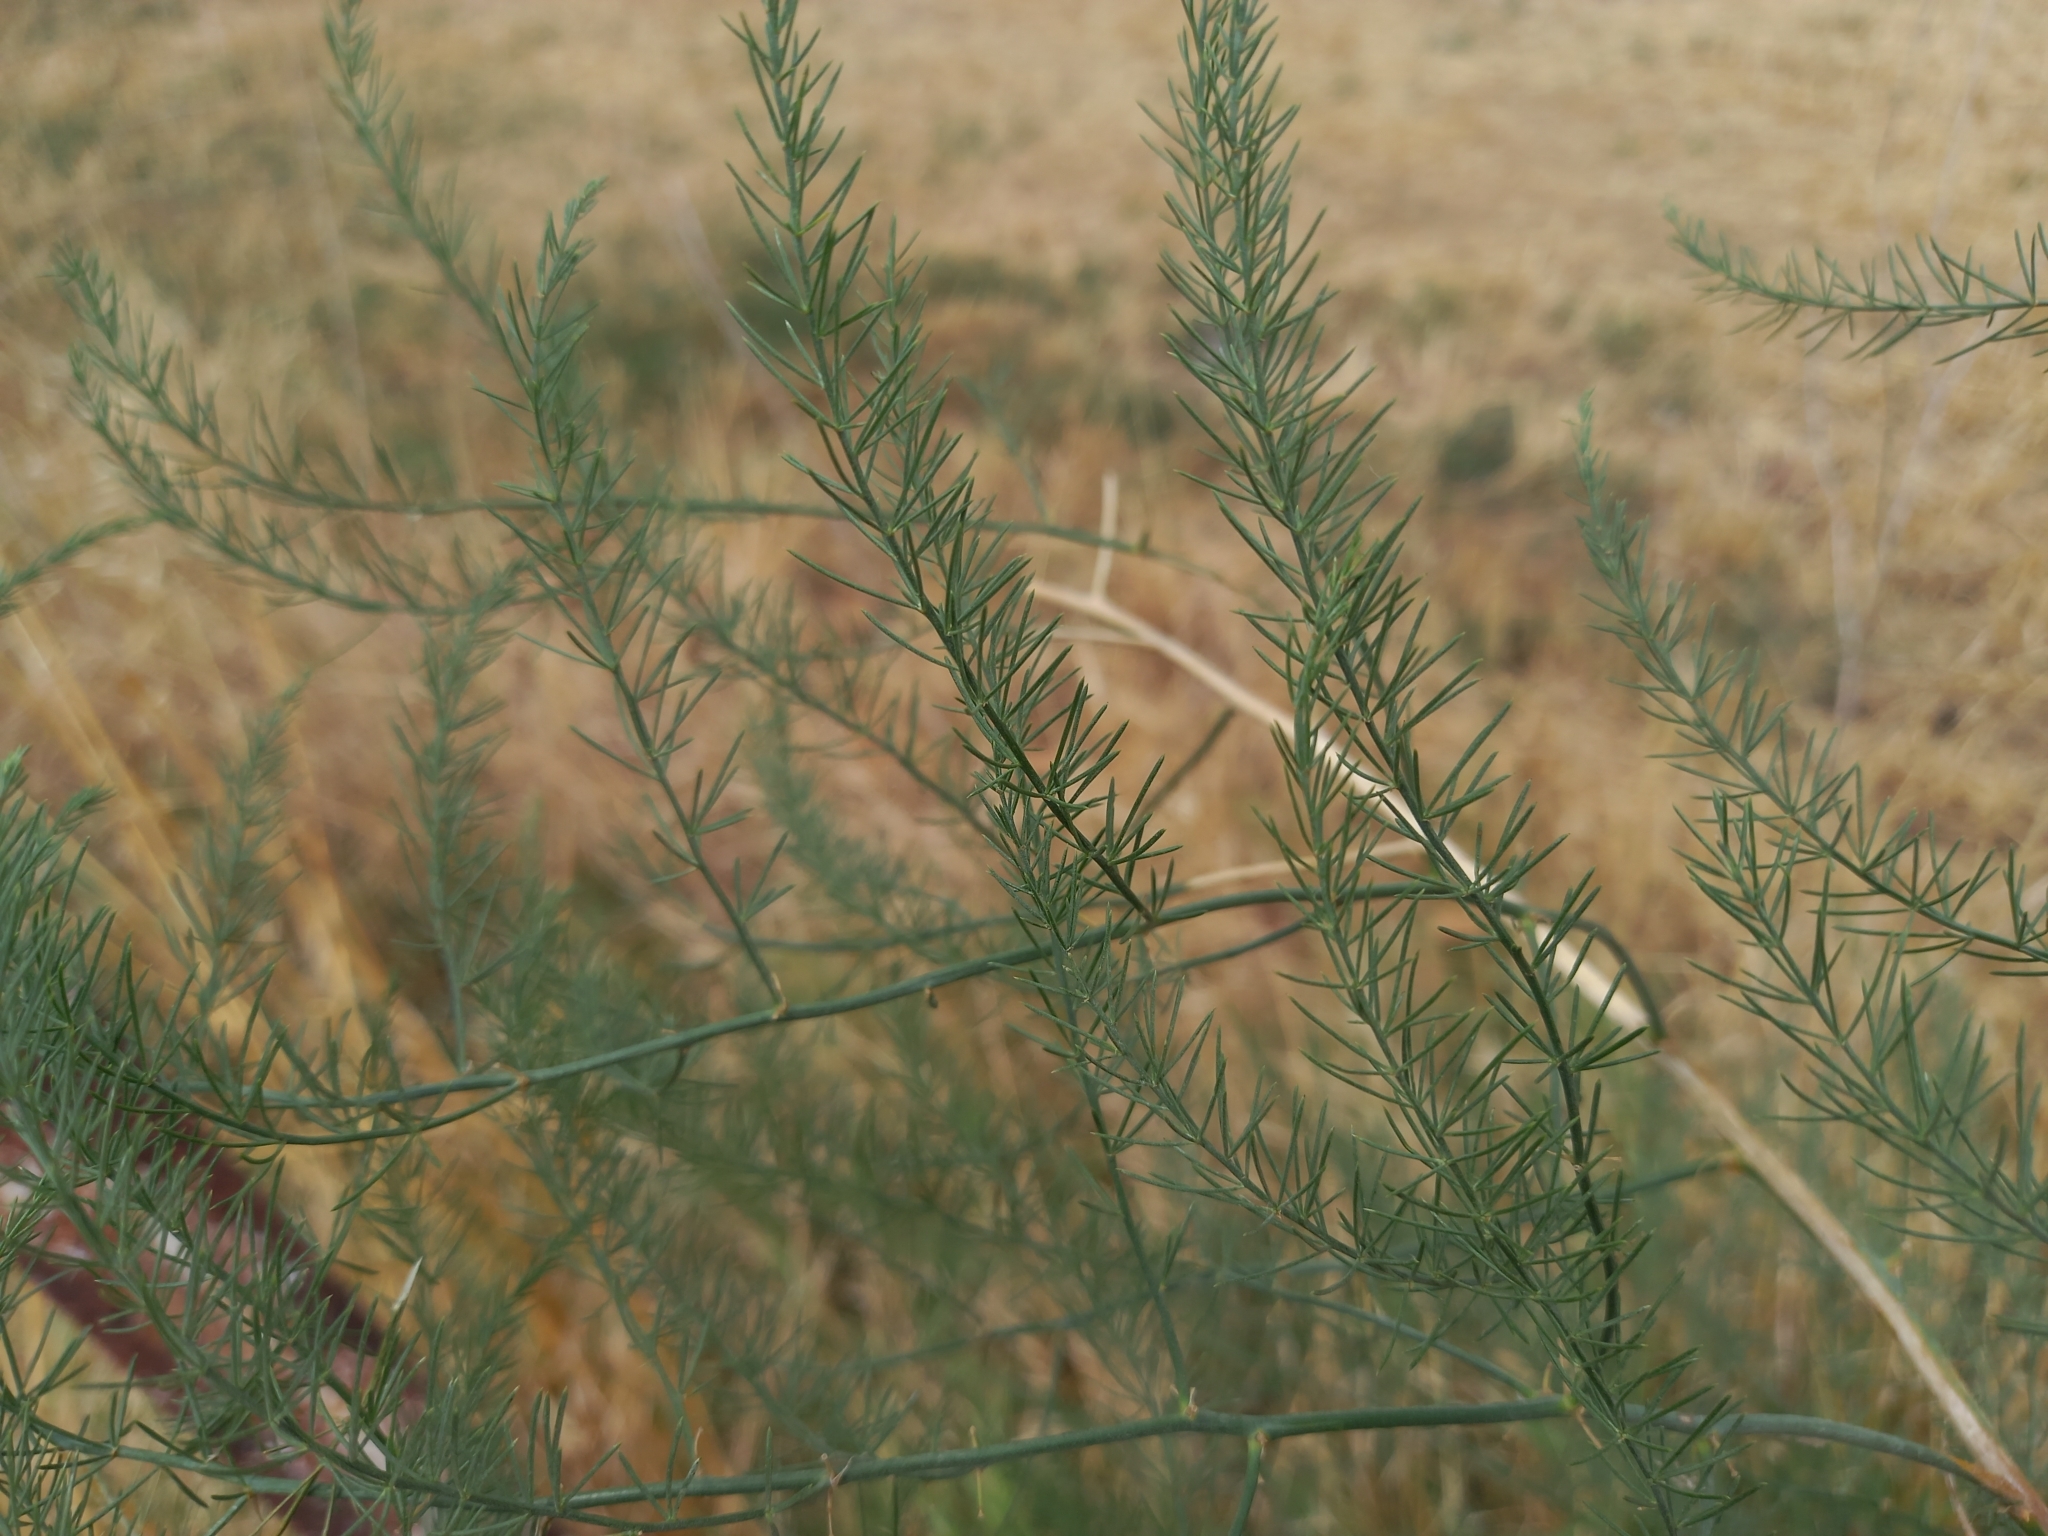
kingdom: Plantae
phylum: Tracheophyta
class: Liliopsida
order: Asparagales
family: Asparagaceae
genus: Asparagus
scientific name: Asparagus officinalis
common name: Garden asparagus
